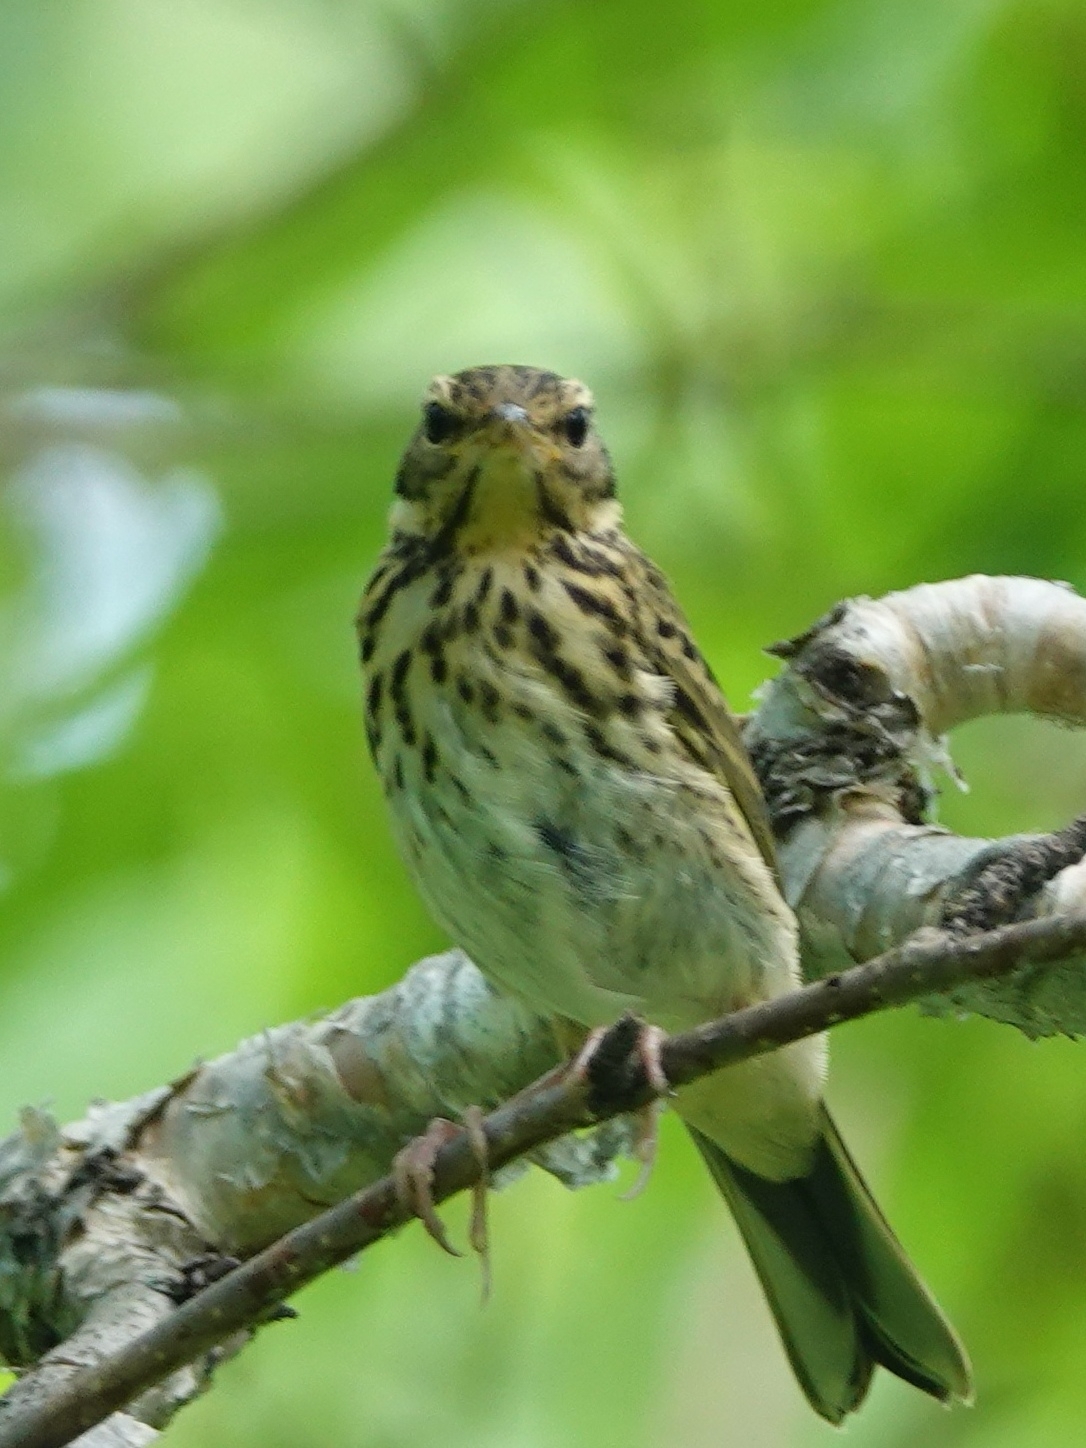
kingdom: Animalia
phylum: Chordata
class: Aves
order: Passeriformes
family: Motacillidae
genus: Anthus
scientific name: Anthus hodgsoni
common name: Olive-backed pipit
